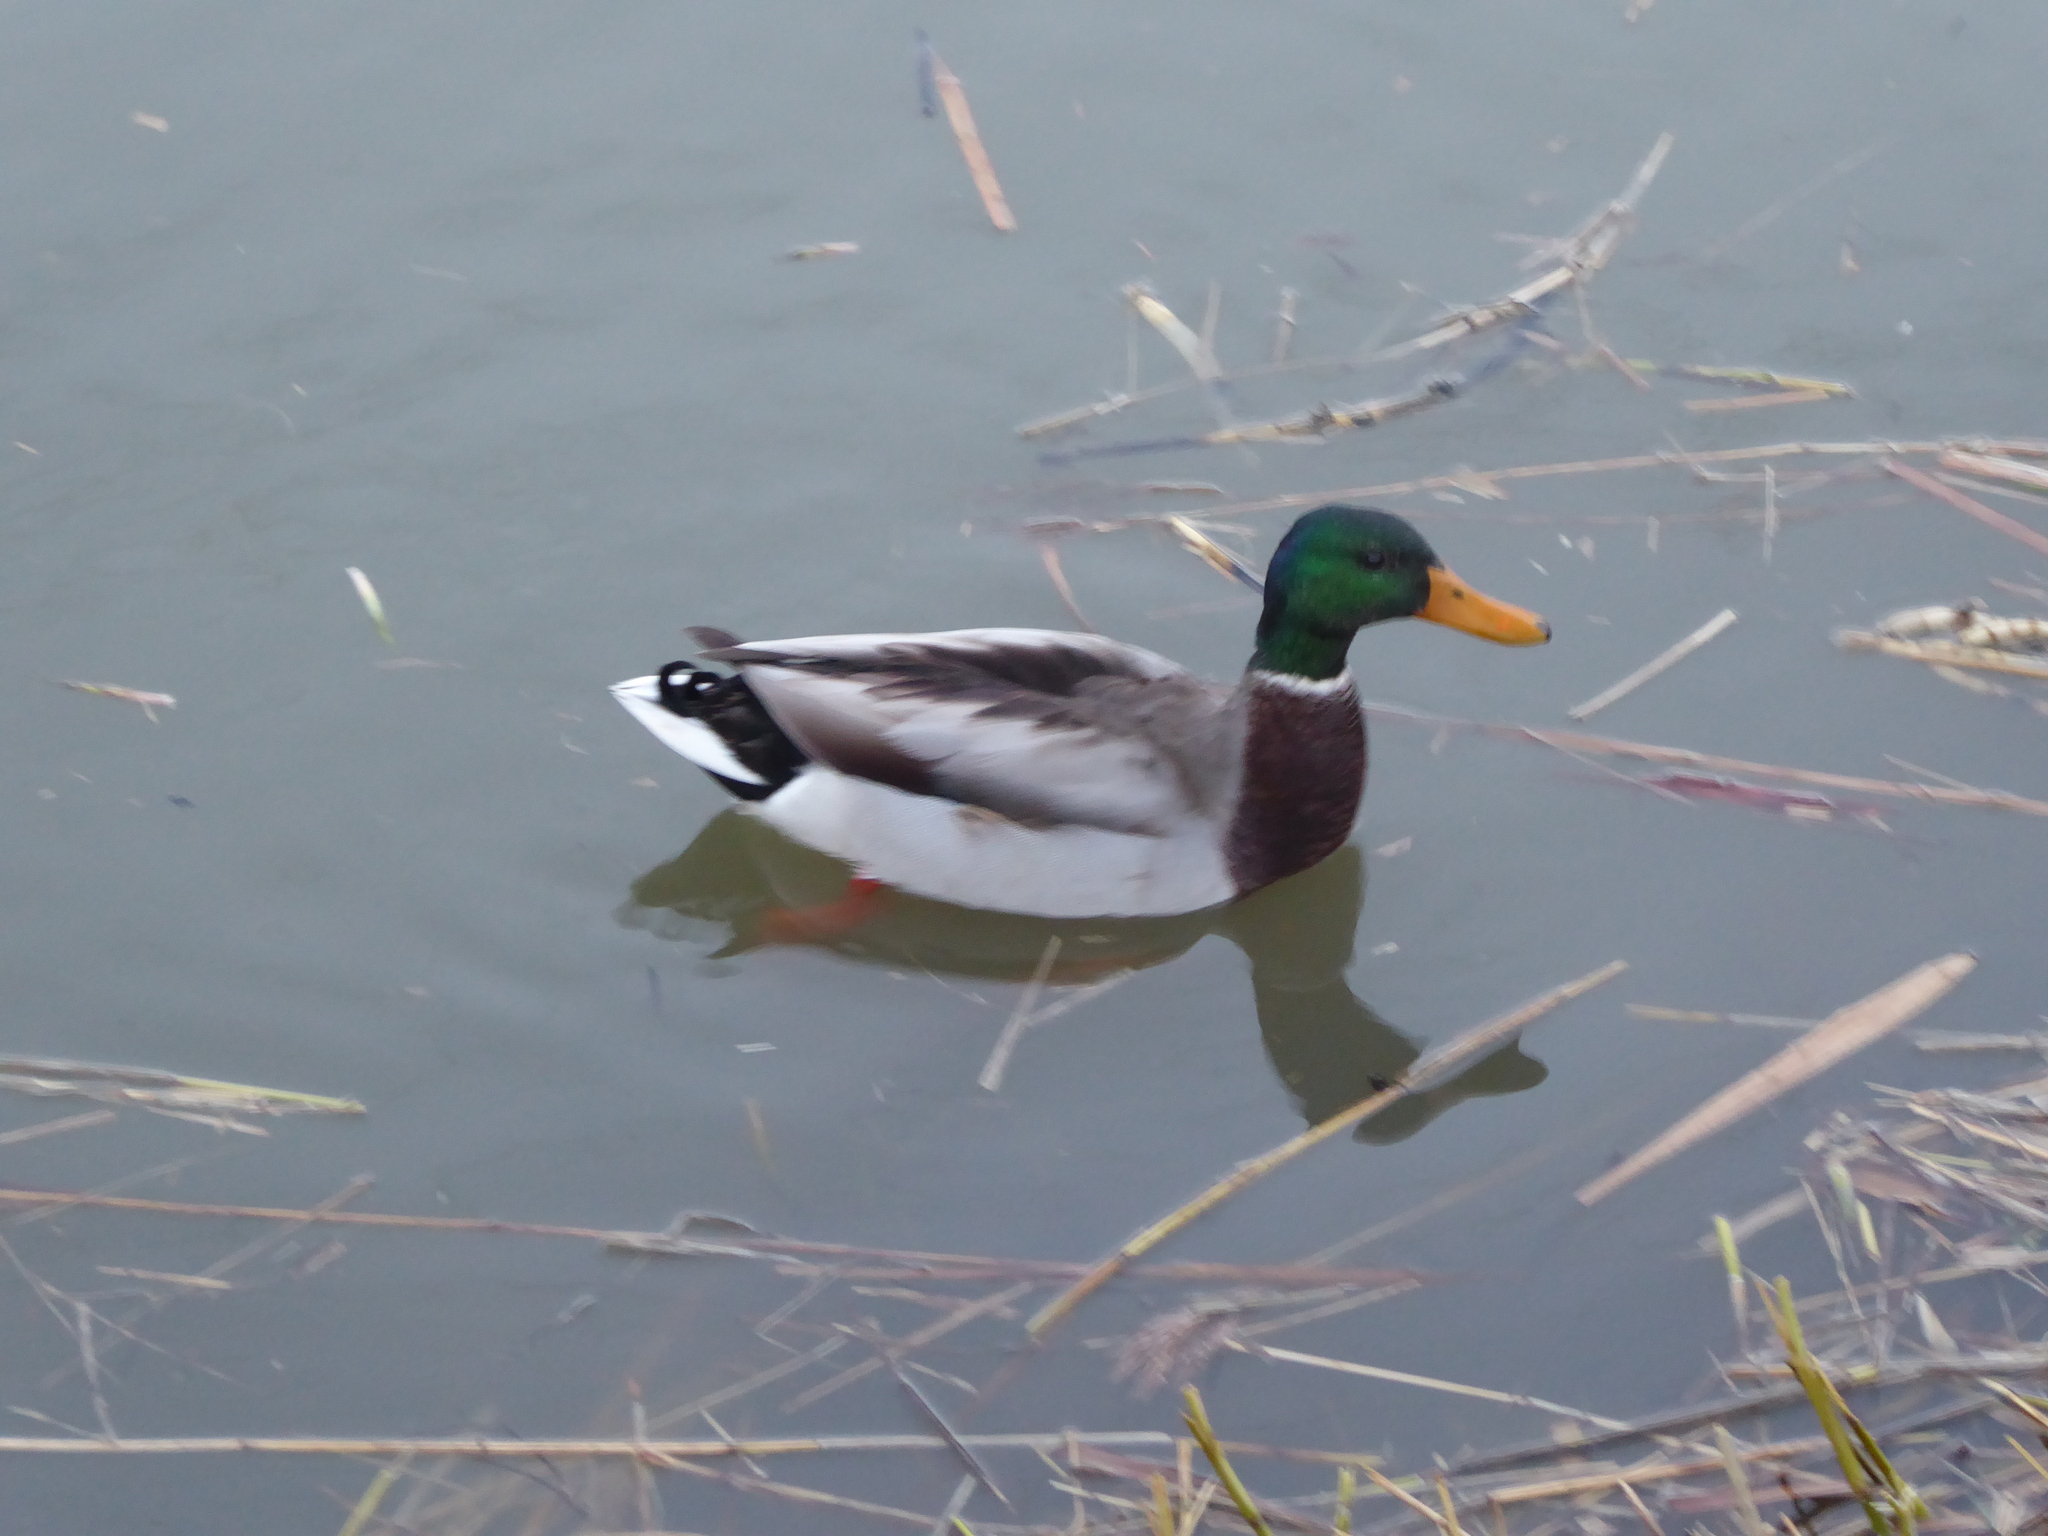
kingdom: Animalia
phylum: Chordata
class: Aves
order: Anseriformes
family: Anatidae
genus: Anas
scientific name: Anas platyrhynchos
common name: Mallard
